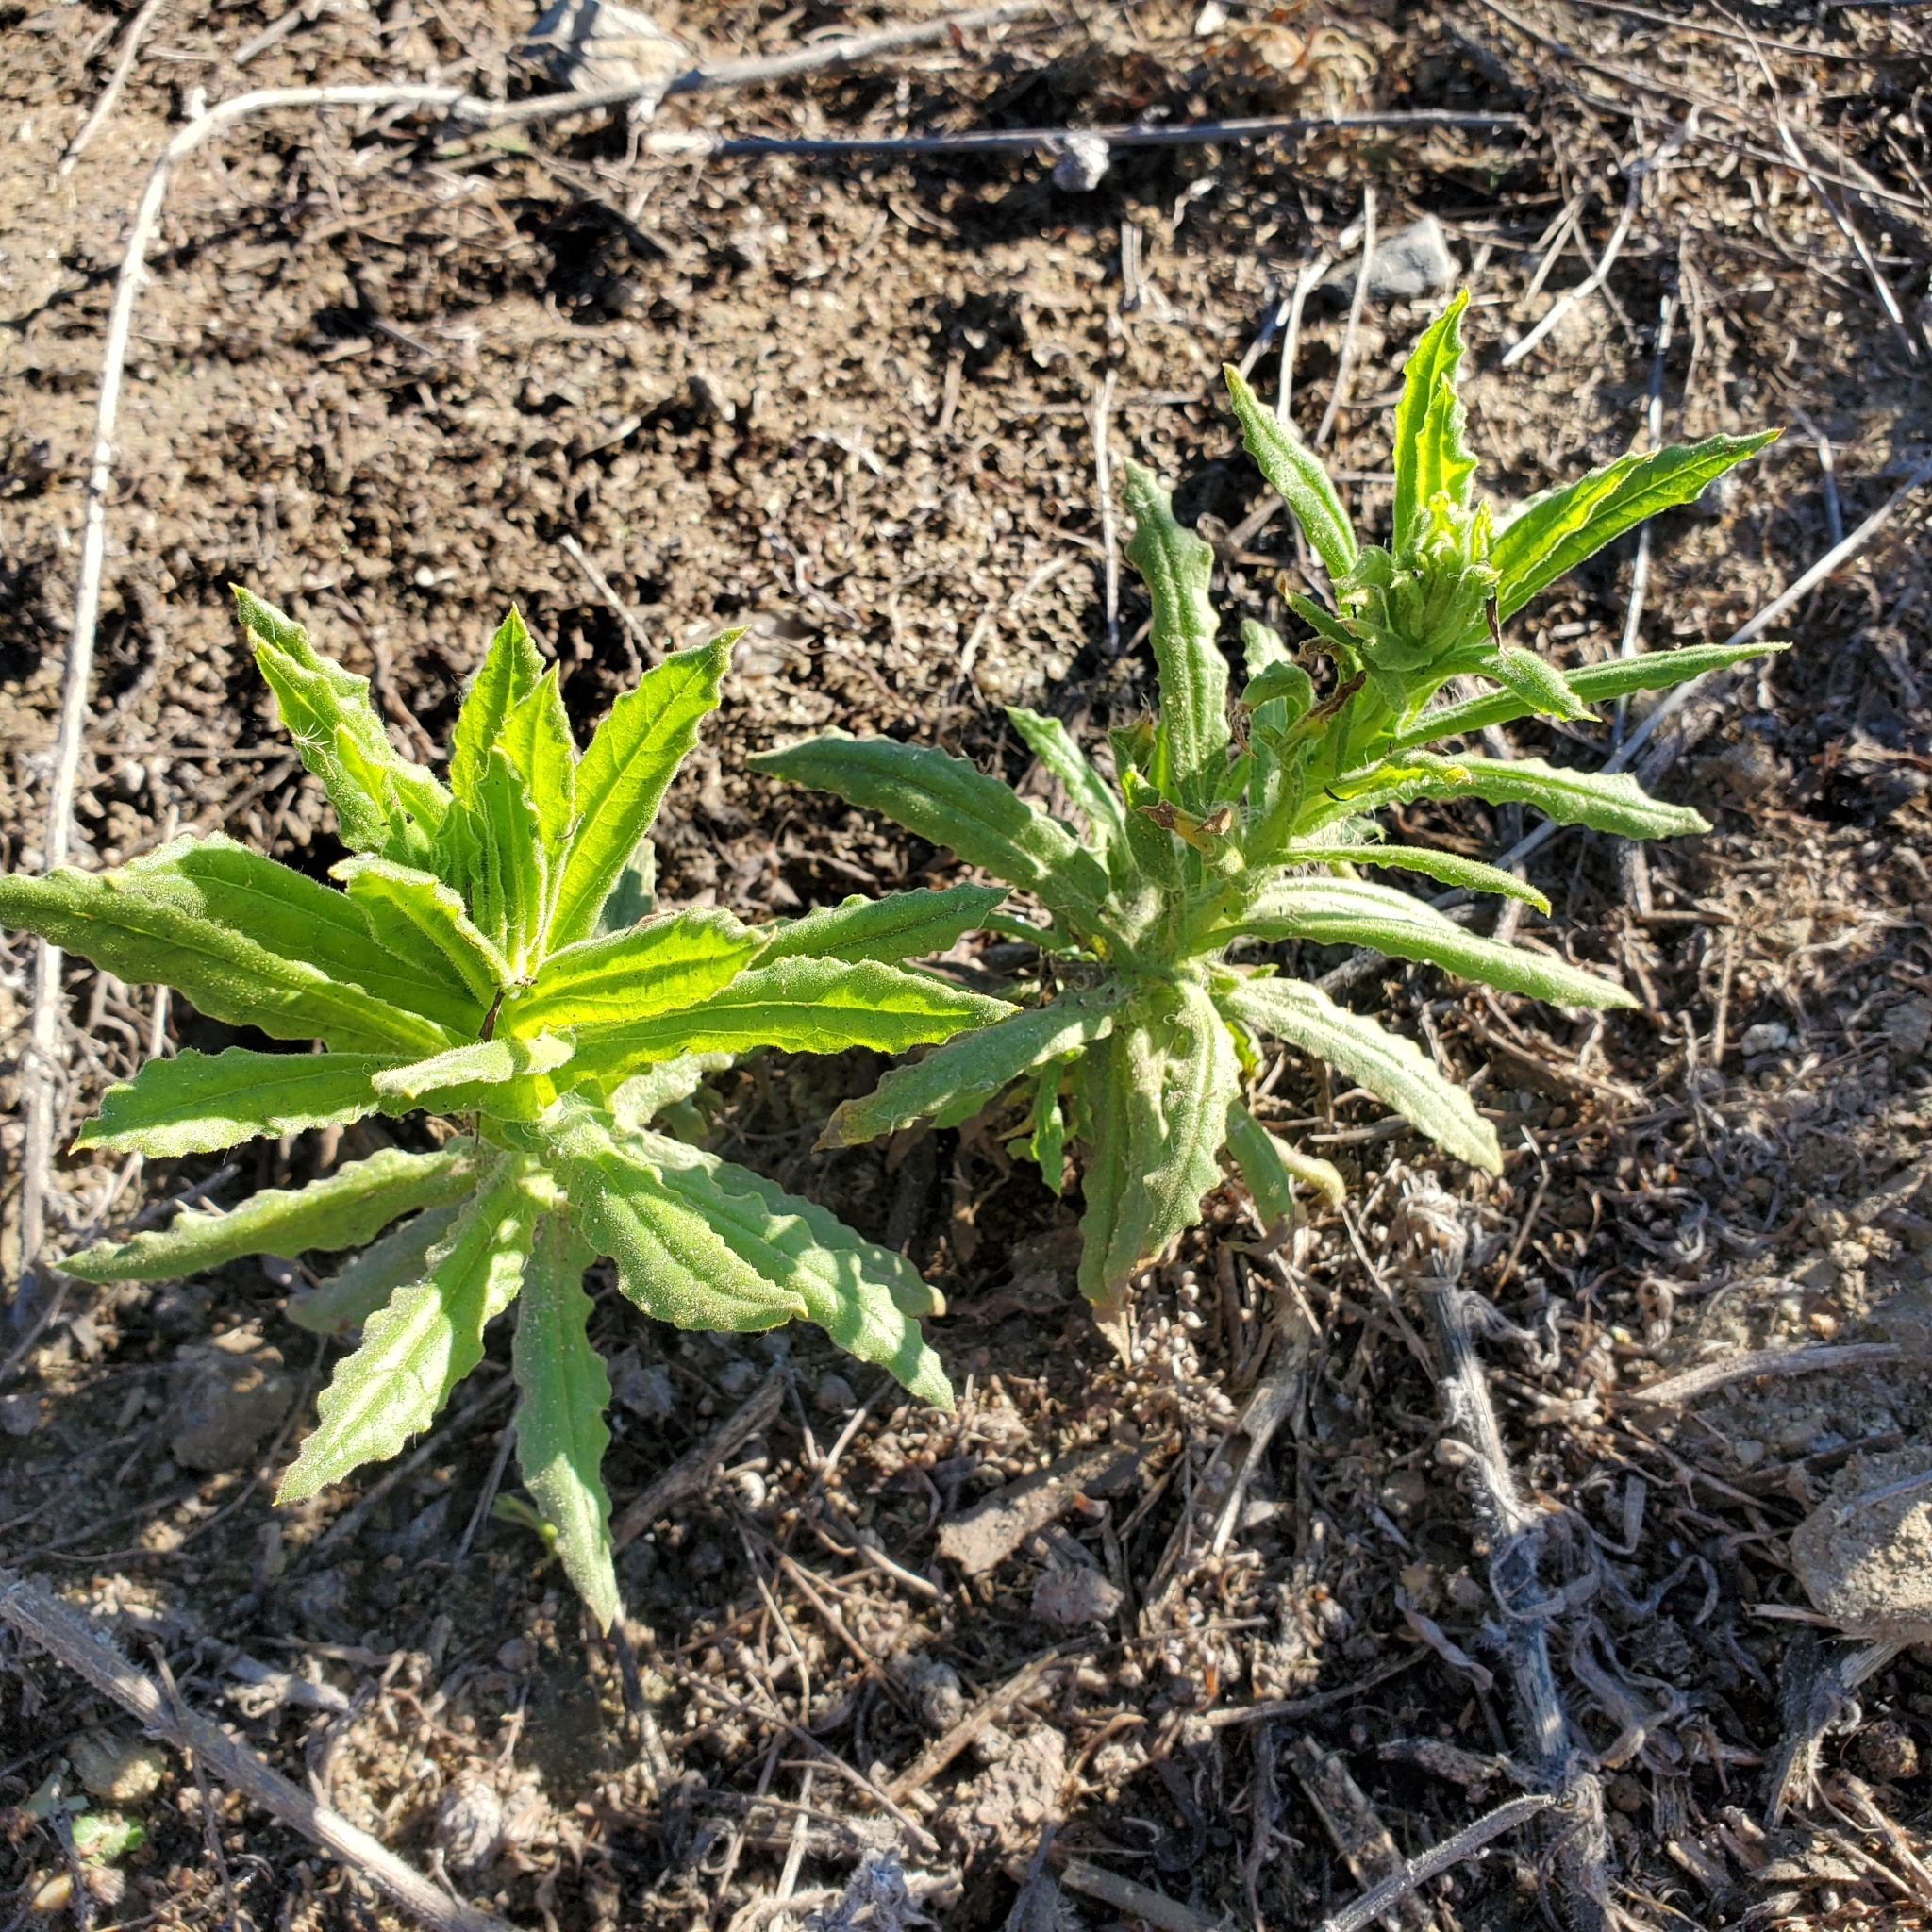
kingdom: Plantae
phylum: Tracheophyta
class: Magnoliopsida
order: Asterales
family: Asteraceae
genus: Pseudognaphalium
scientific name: Pseudognaphalium californicum
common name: California rabbit-tobacco
